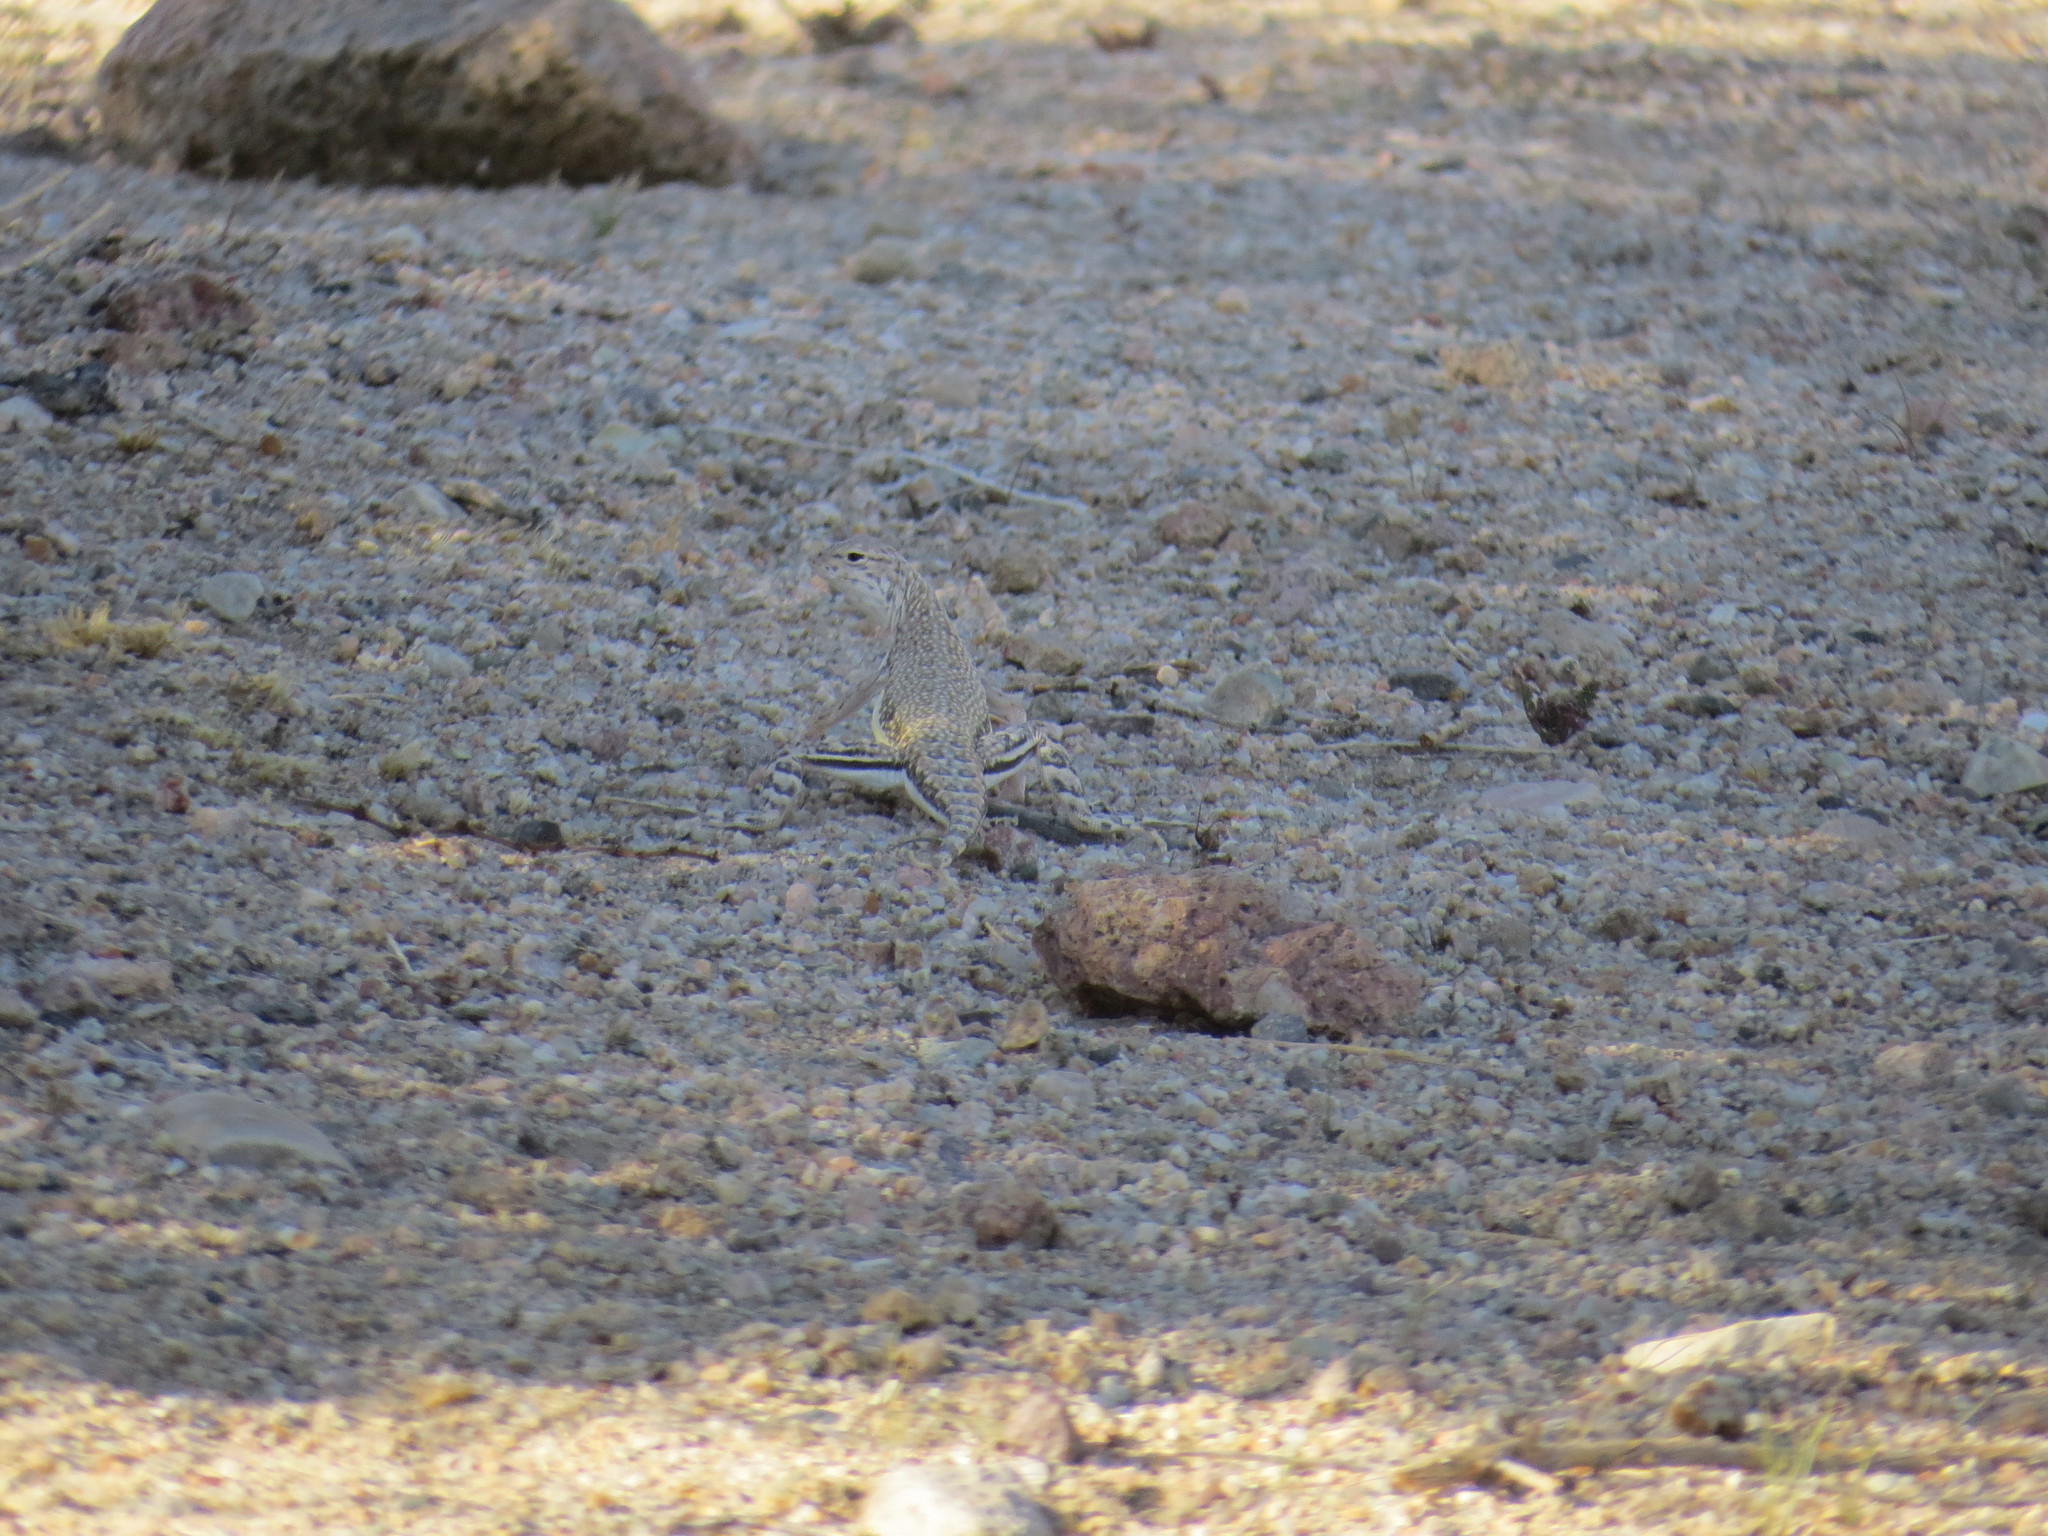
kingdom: Animalia
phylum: Chordata
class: Squamata
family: Phrynosomatidae
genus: Callisaurus
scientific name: Callisaurus draconoides
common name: Zebra-tailed lizard
